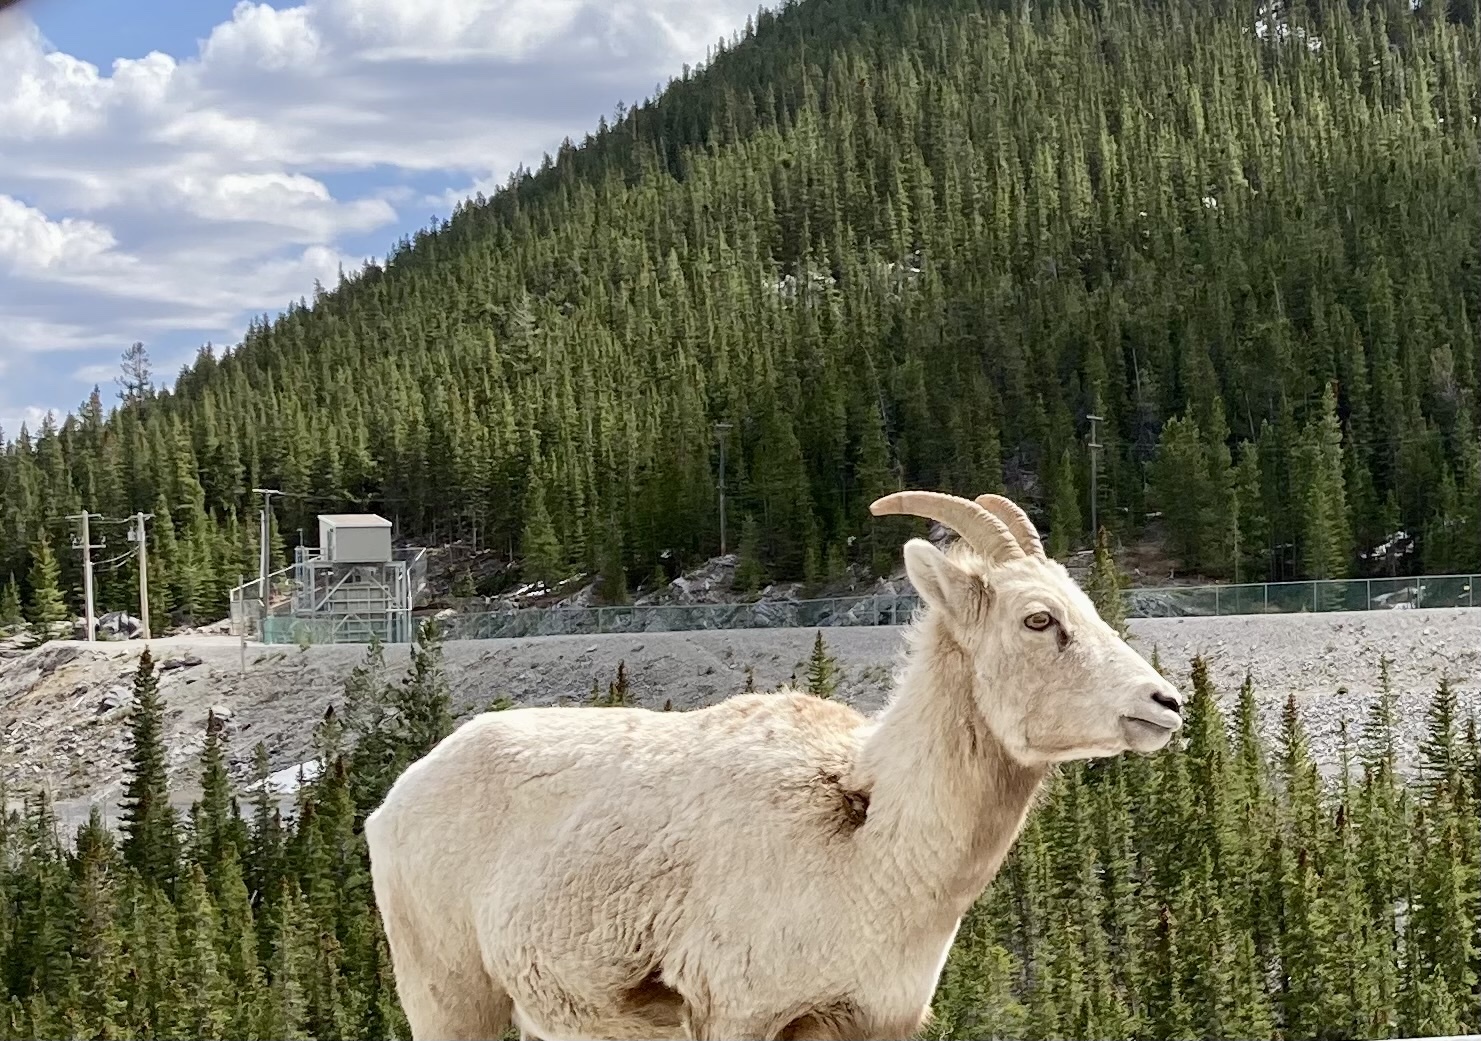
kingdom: Animalia
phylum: Chordata
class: Mammalia
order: Artiodactyla
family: Bovidae
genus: Ovis
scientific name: Ovis canadensis
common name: Bighorn sheep
